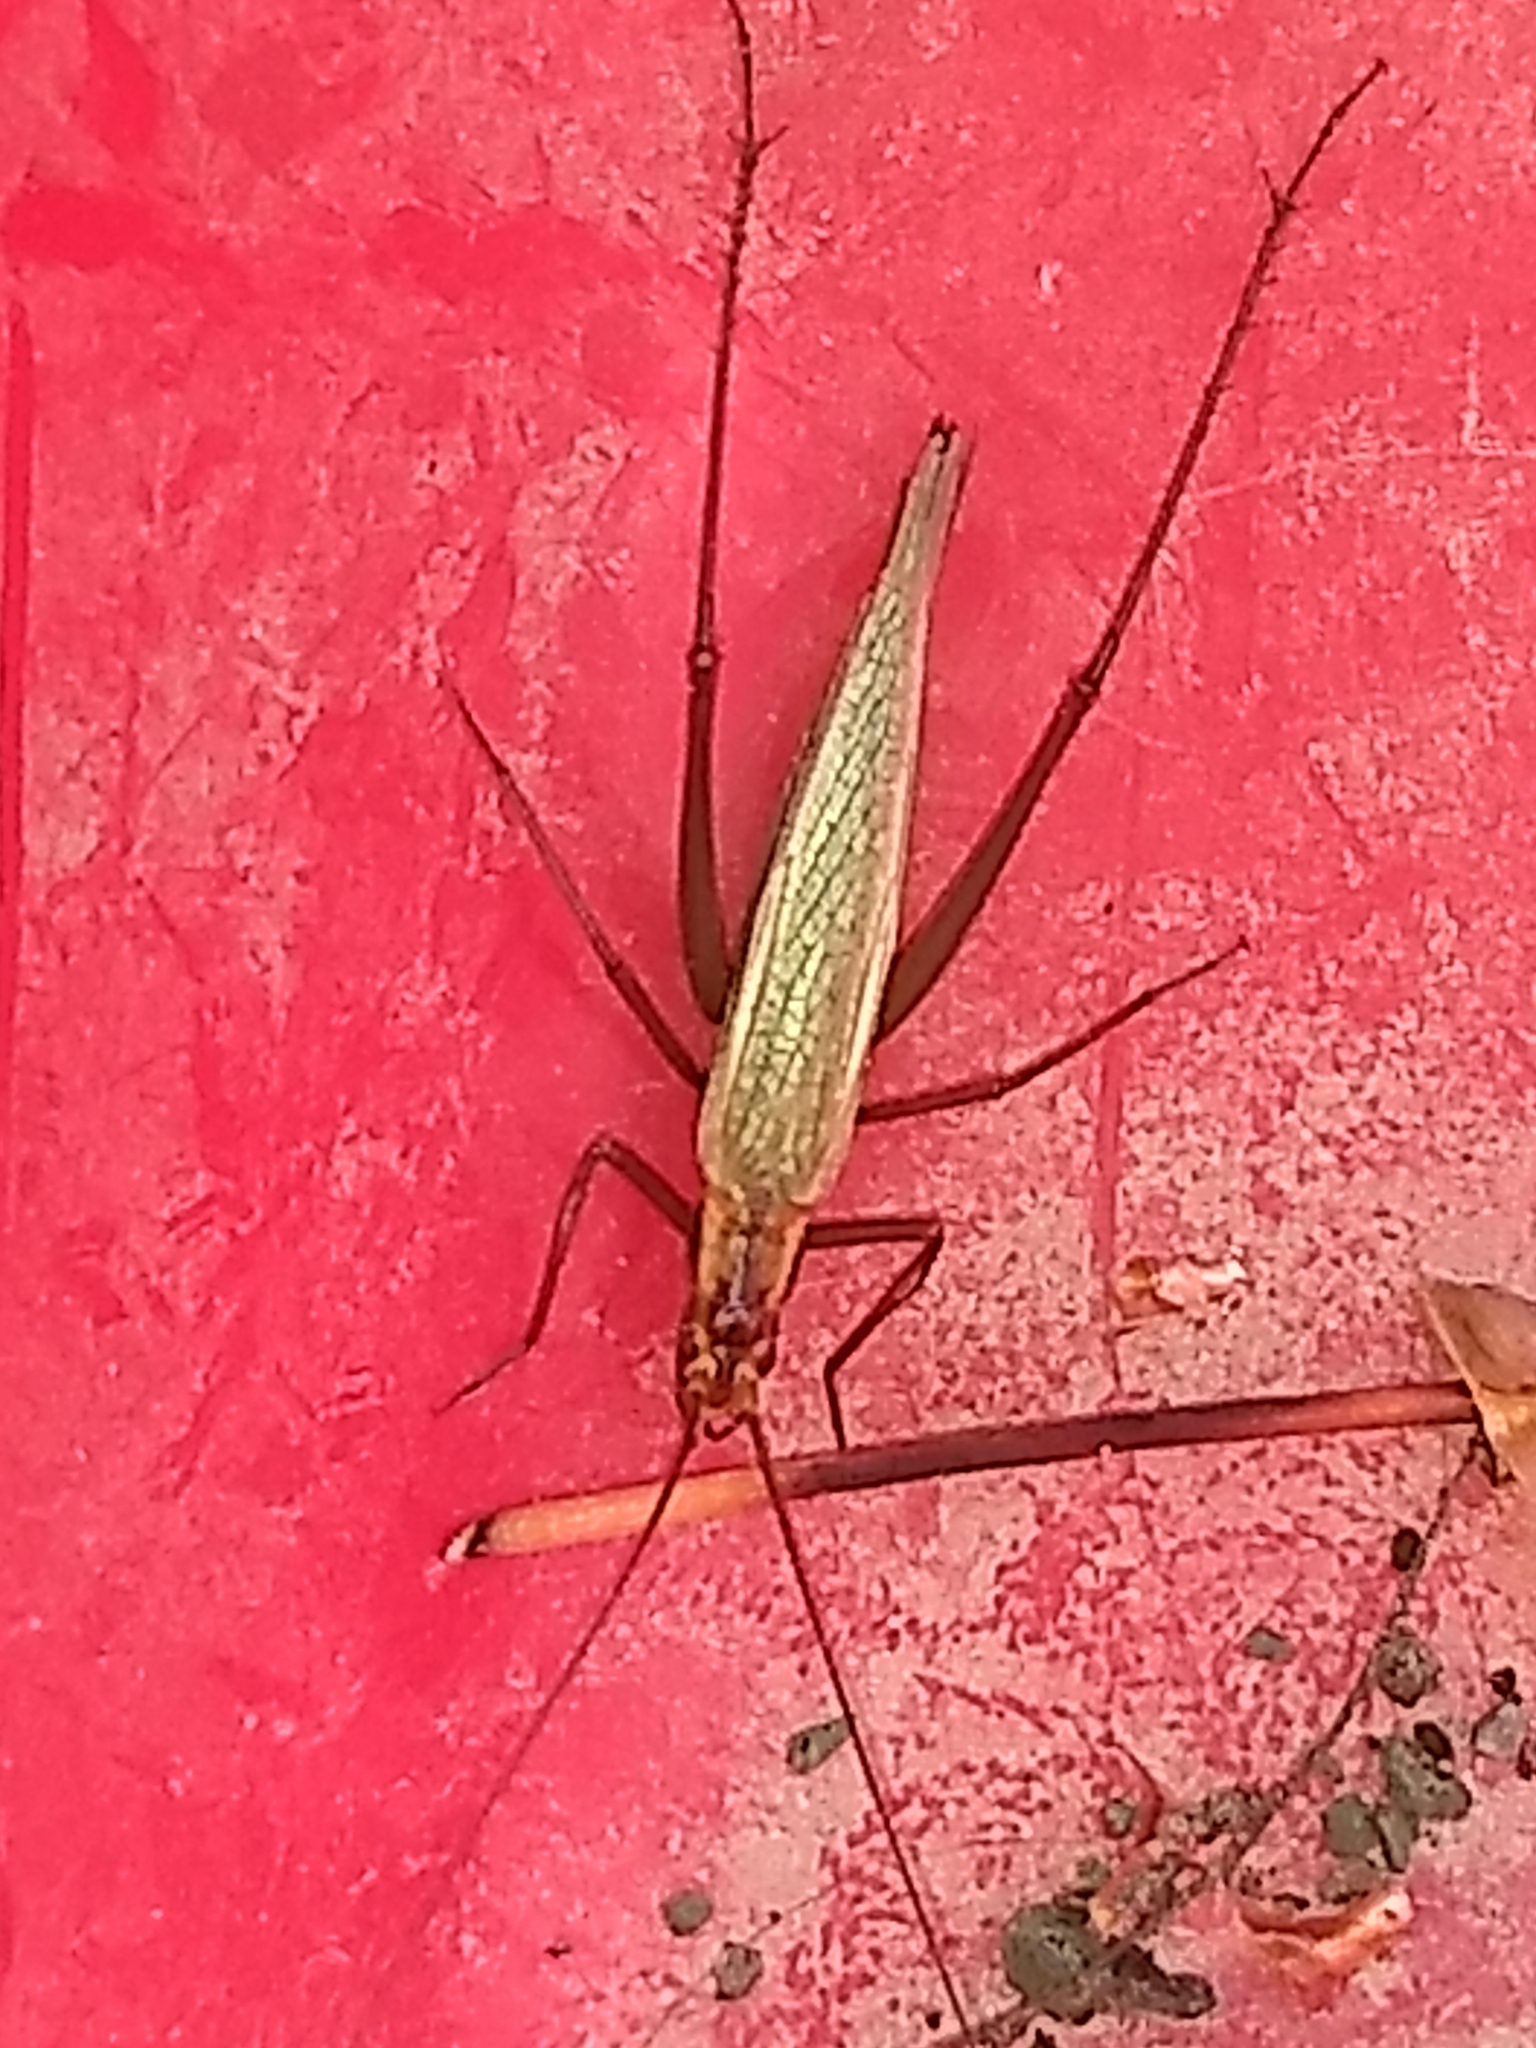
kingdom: Animalia
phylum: Arthropoda
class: Insecta
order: Orthoptera
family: Gryllidae
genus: Oecanthus
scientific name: Oecanthus pini
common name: Pine tree cricket
